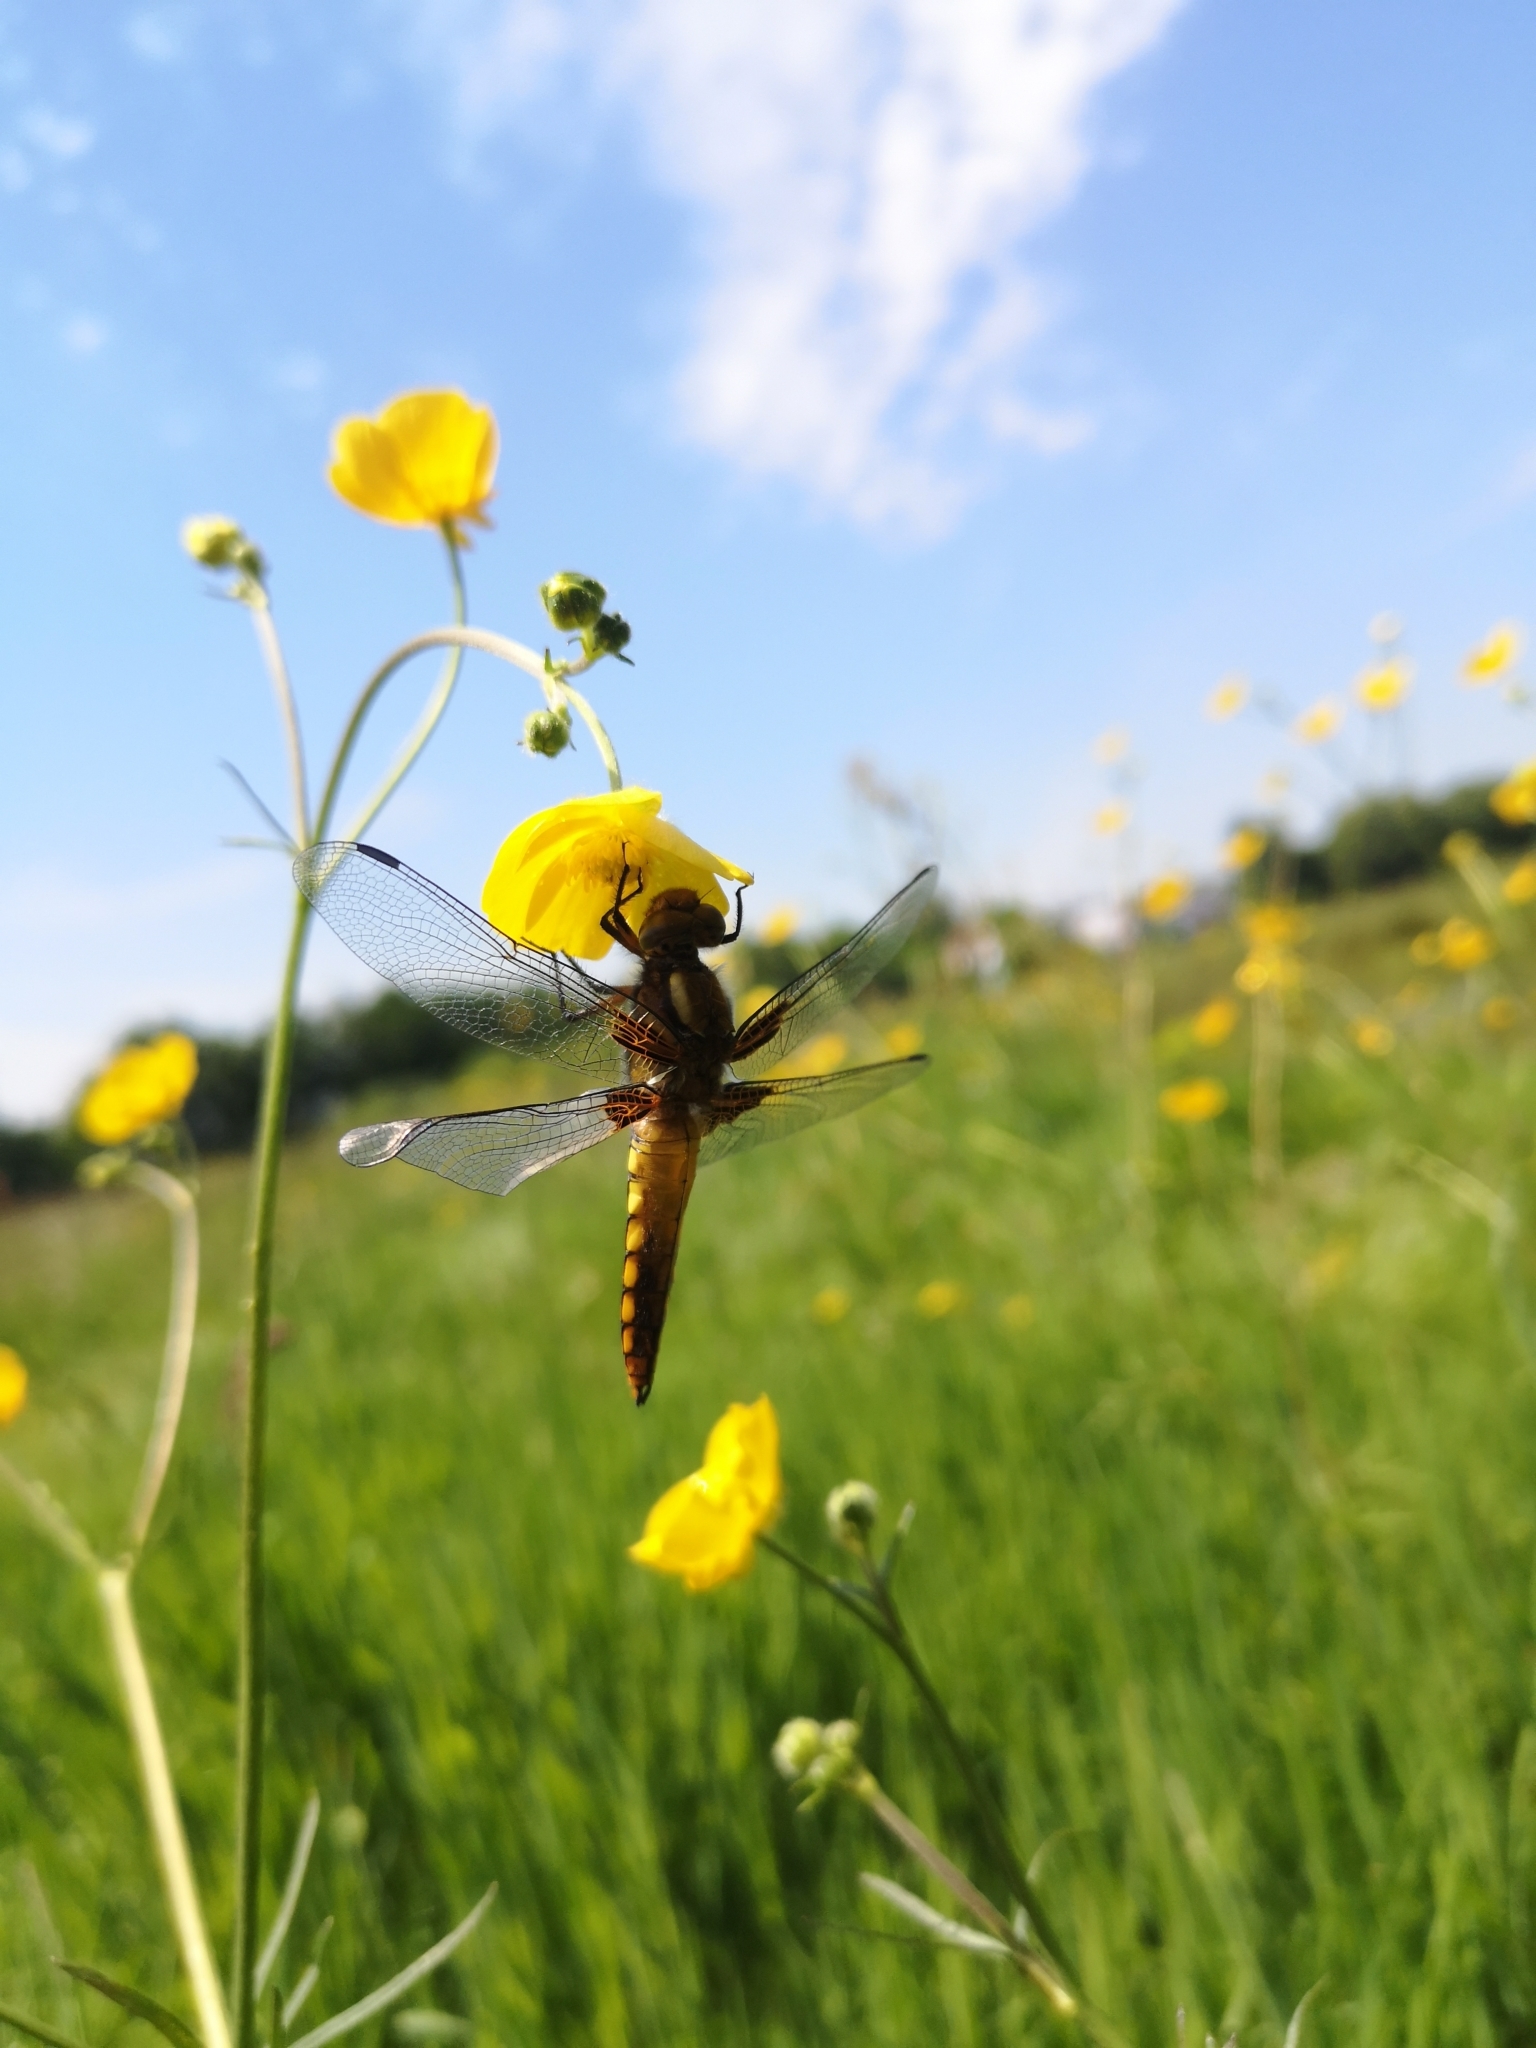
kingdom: Animalia
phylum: Arthropoda
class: Insecta
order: Odonata
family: Libellulidae
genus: Libellula
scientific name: Libellula depressa
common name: Broad-bodied chaser
